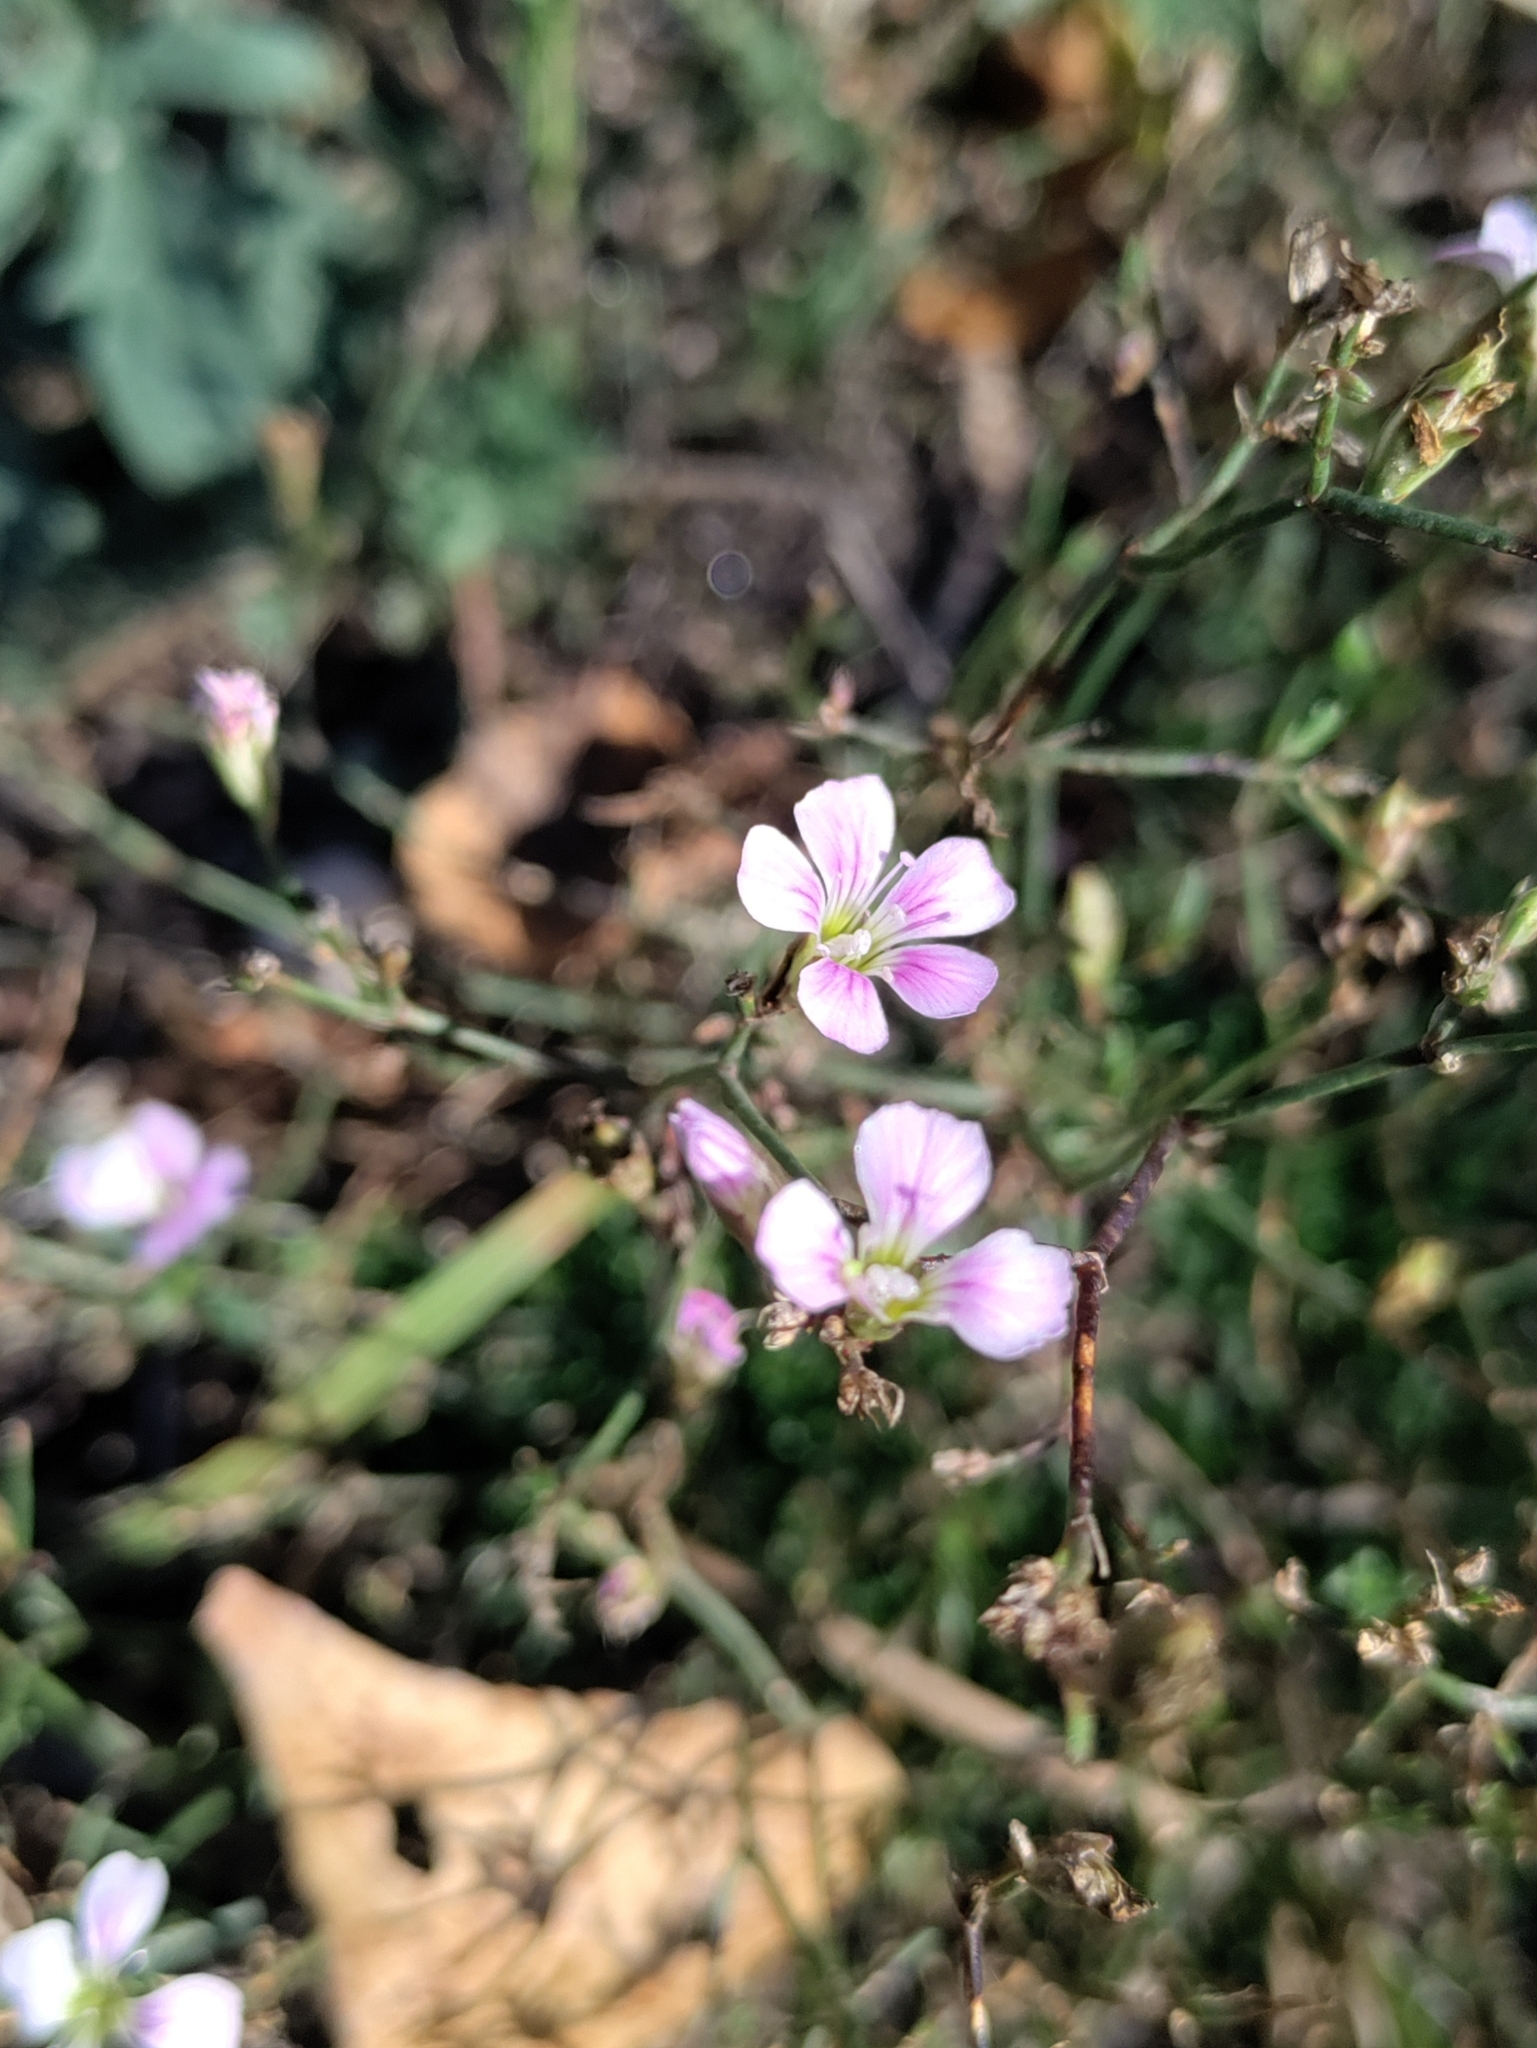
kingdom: Plantae
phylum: Tracheophyta
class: Magnoliopsida
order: Caryophyllales
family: Caryophyllaceae
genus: Petrorhagia
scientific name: Petrorhagia saxifraga
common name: Tunicflower
